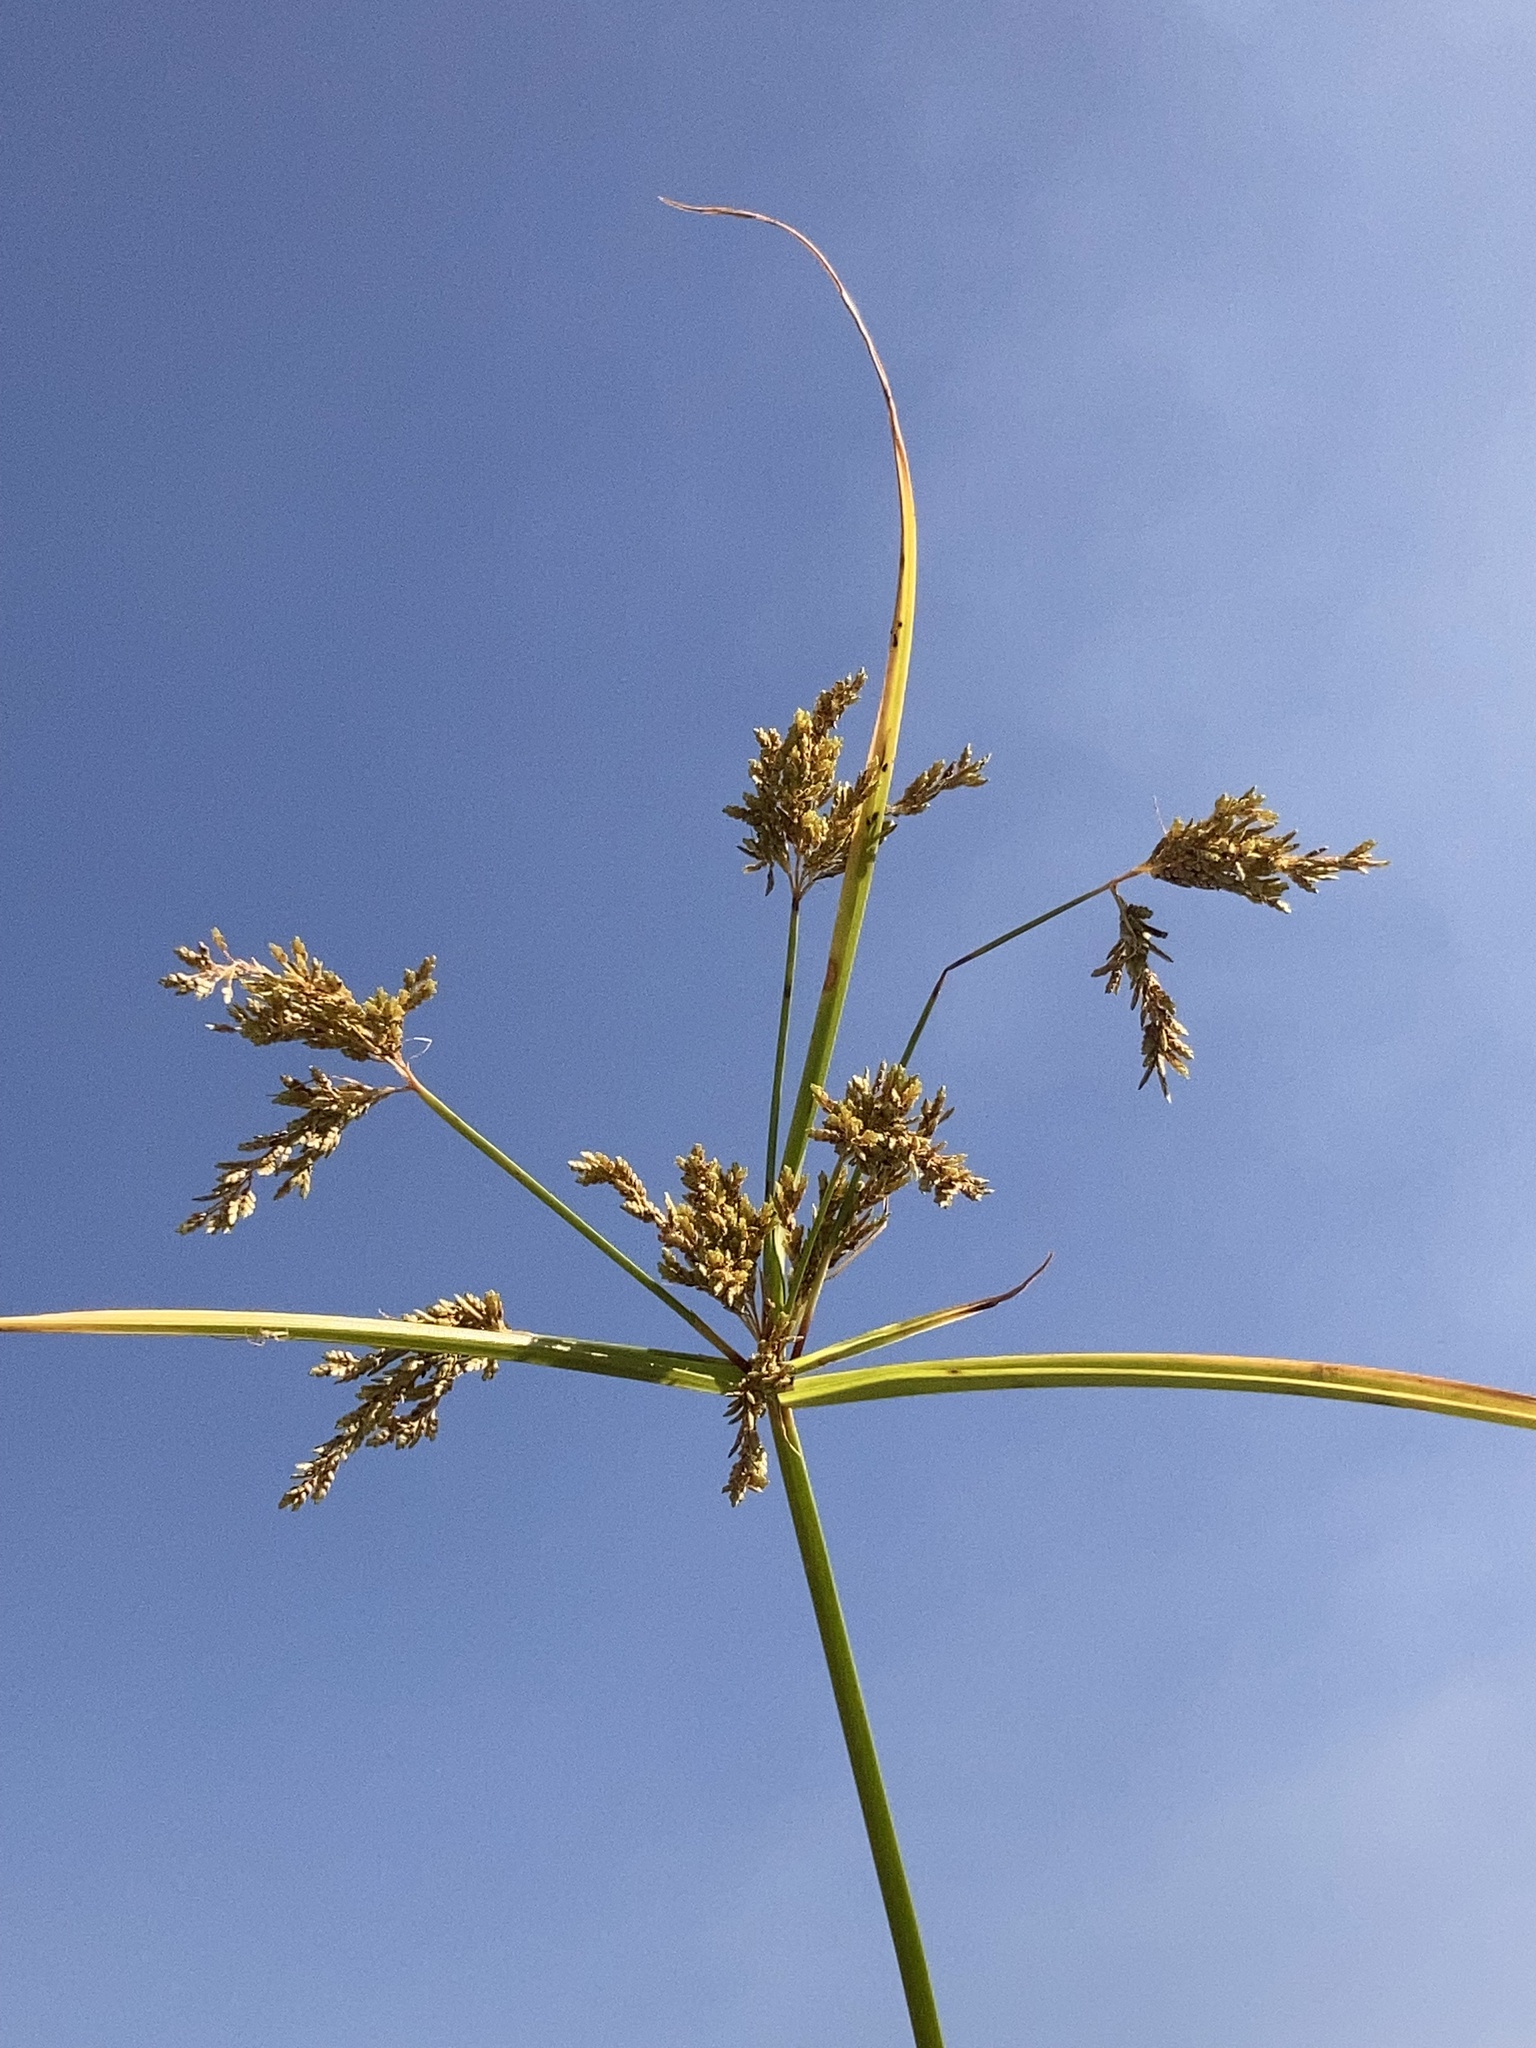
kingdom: Plantae
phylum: Tracheophyta
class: Liliopsida
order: Poales
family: Cyperaceae
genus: Cyperus
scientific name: Cyperus iria
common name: Ricefield flatsedge
